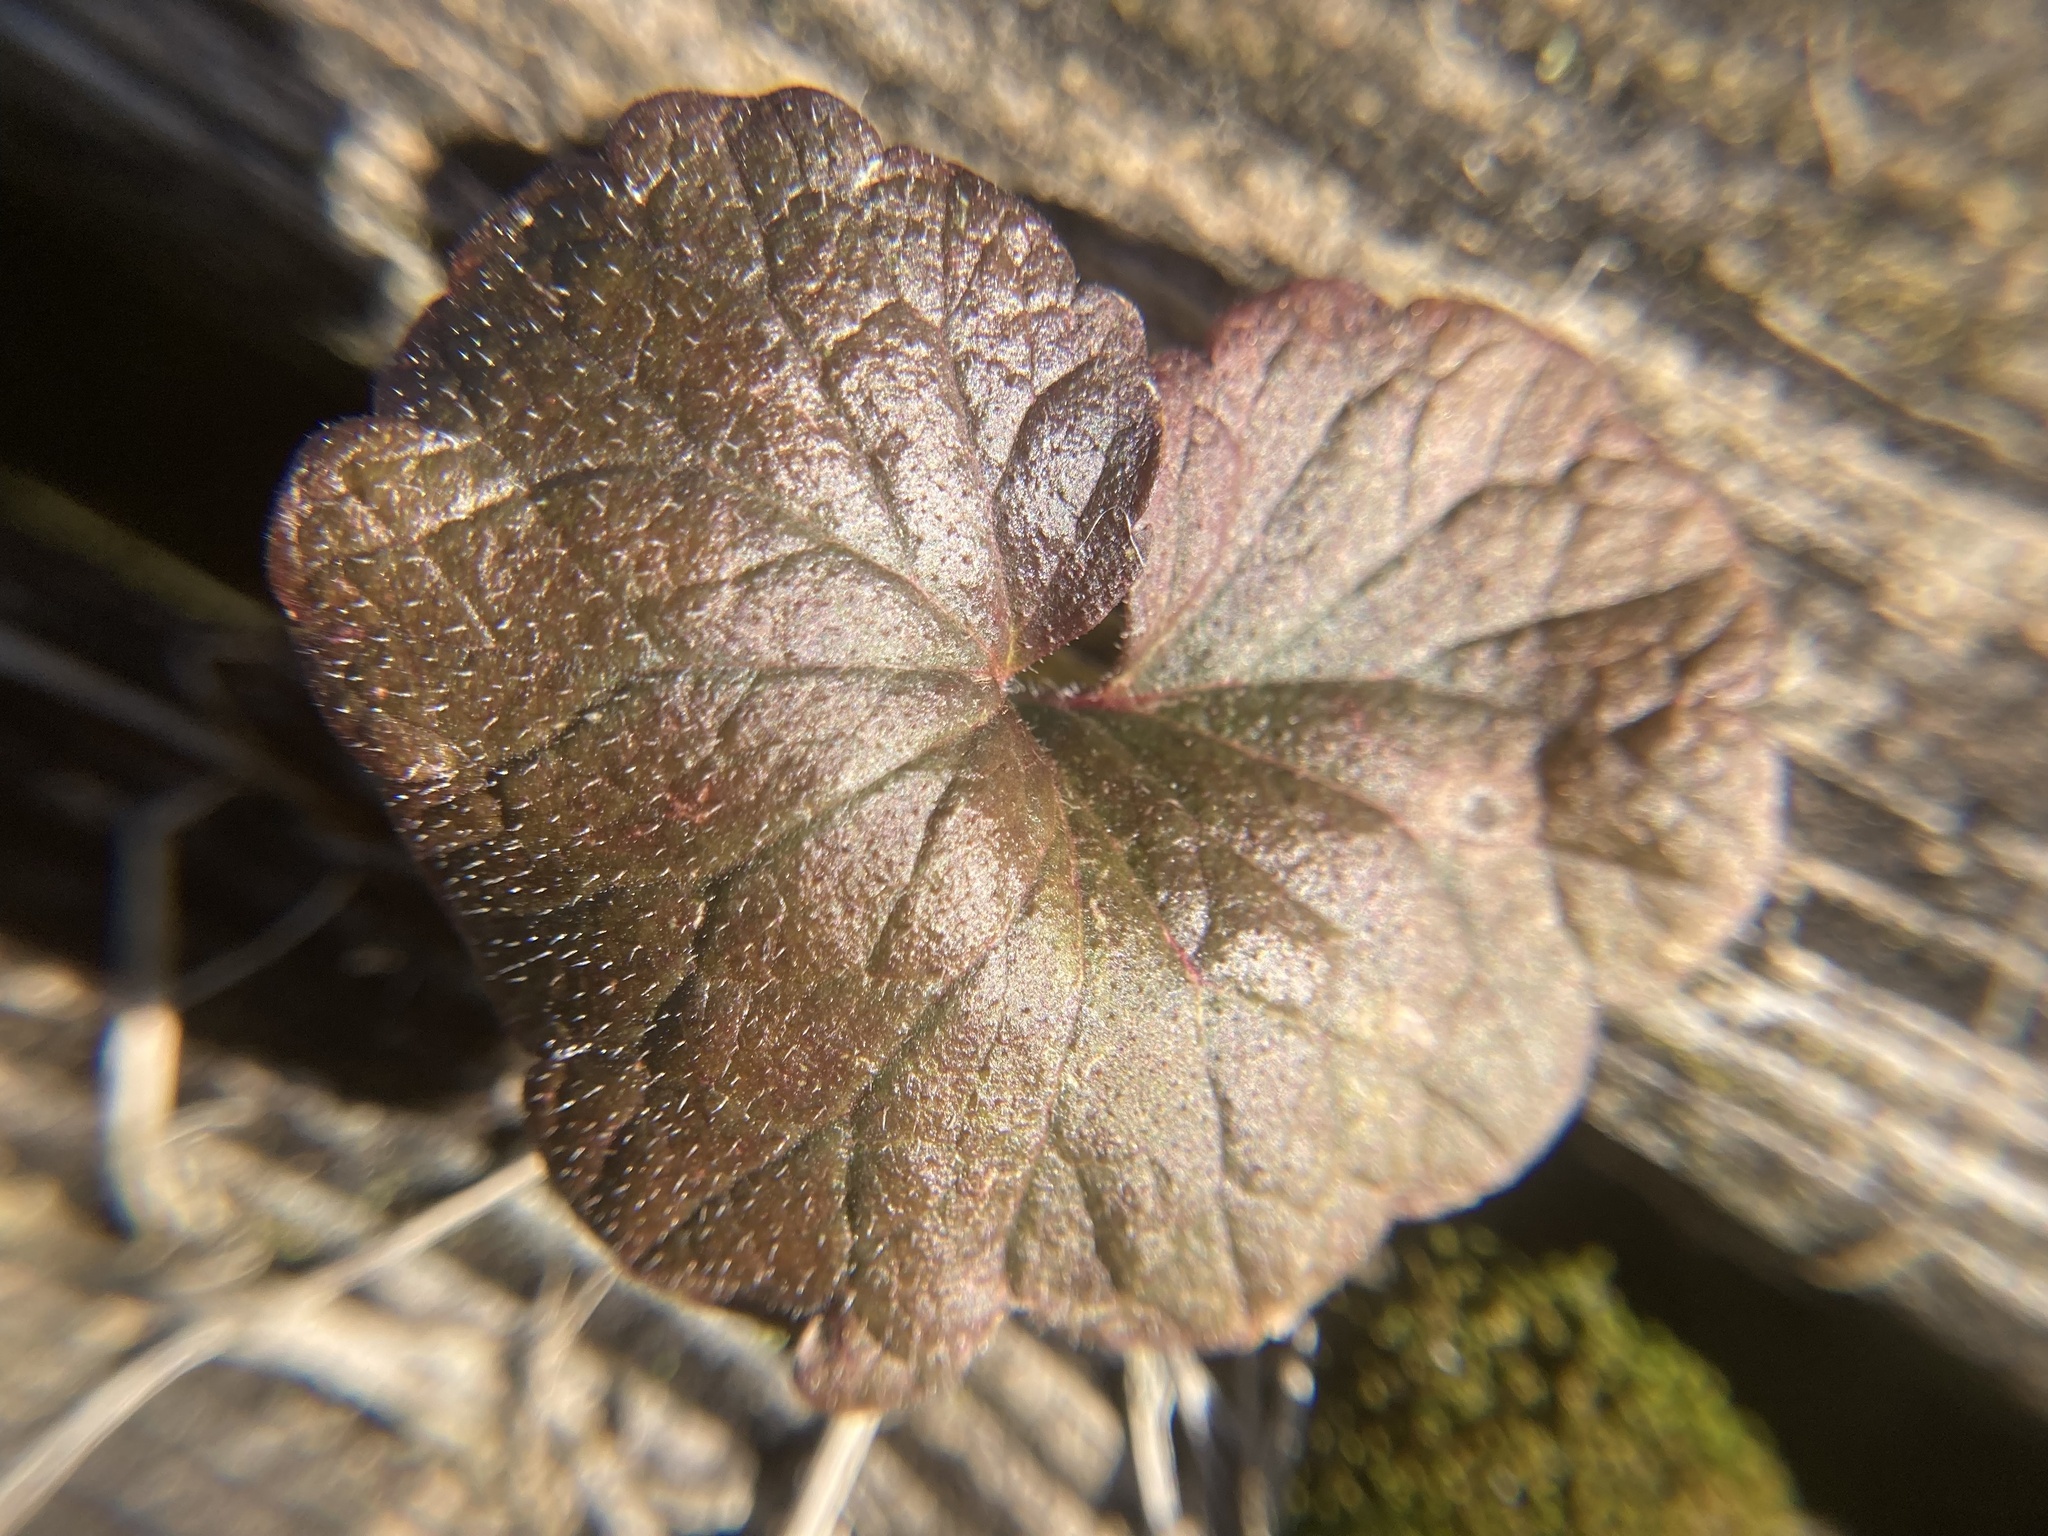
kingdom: Plantae
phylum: Tracheophyta
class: Magnoliopsida
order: Lamiales
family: Lamiaceae
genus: Glechoma
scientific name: Glechoma hederacea
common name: Ground ivy
